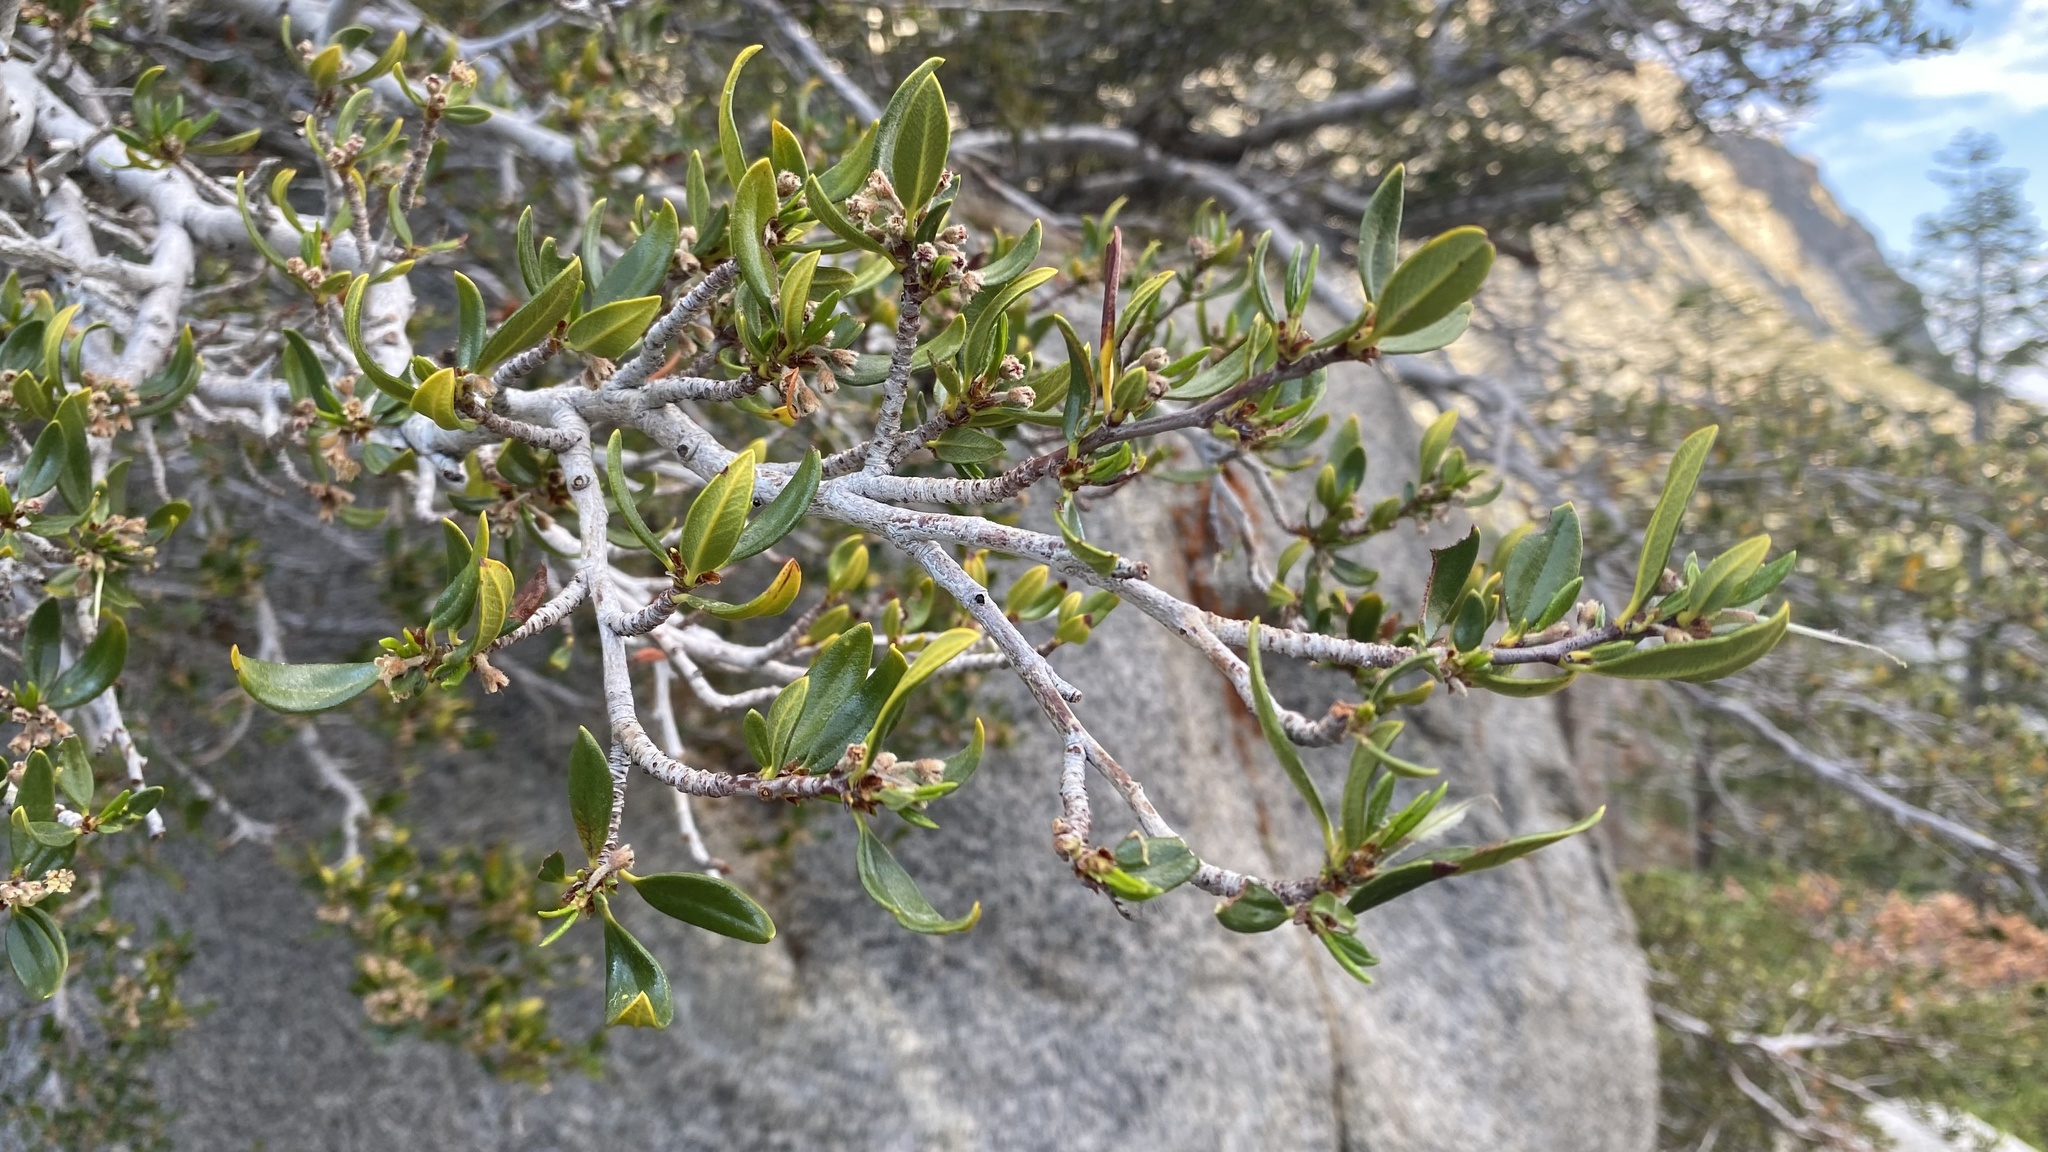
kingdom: Plantae
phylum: Tracheophyta
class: Magnoliopsida
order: Rosales
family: Rosaceae
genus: Cercocarpus
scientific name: Cercocarpus ledifolius
